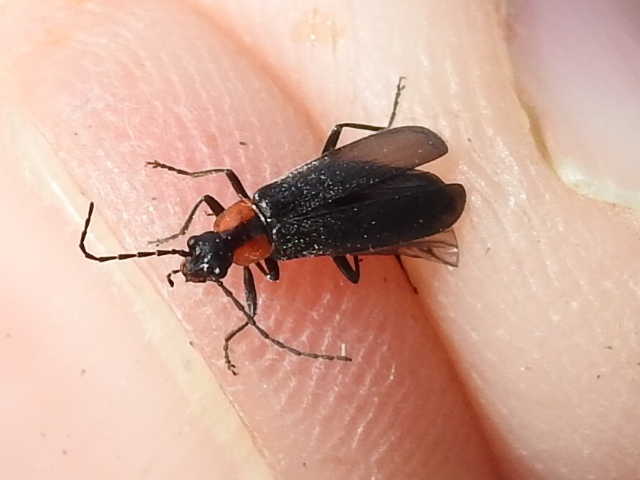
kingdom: Animalia
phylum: Arthropoda
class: Insecta
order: Coleoptera
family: Cantharidae
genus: Rhagonycha
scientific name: Rhagonycha lineola
